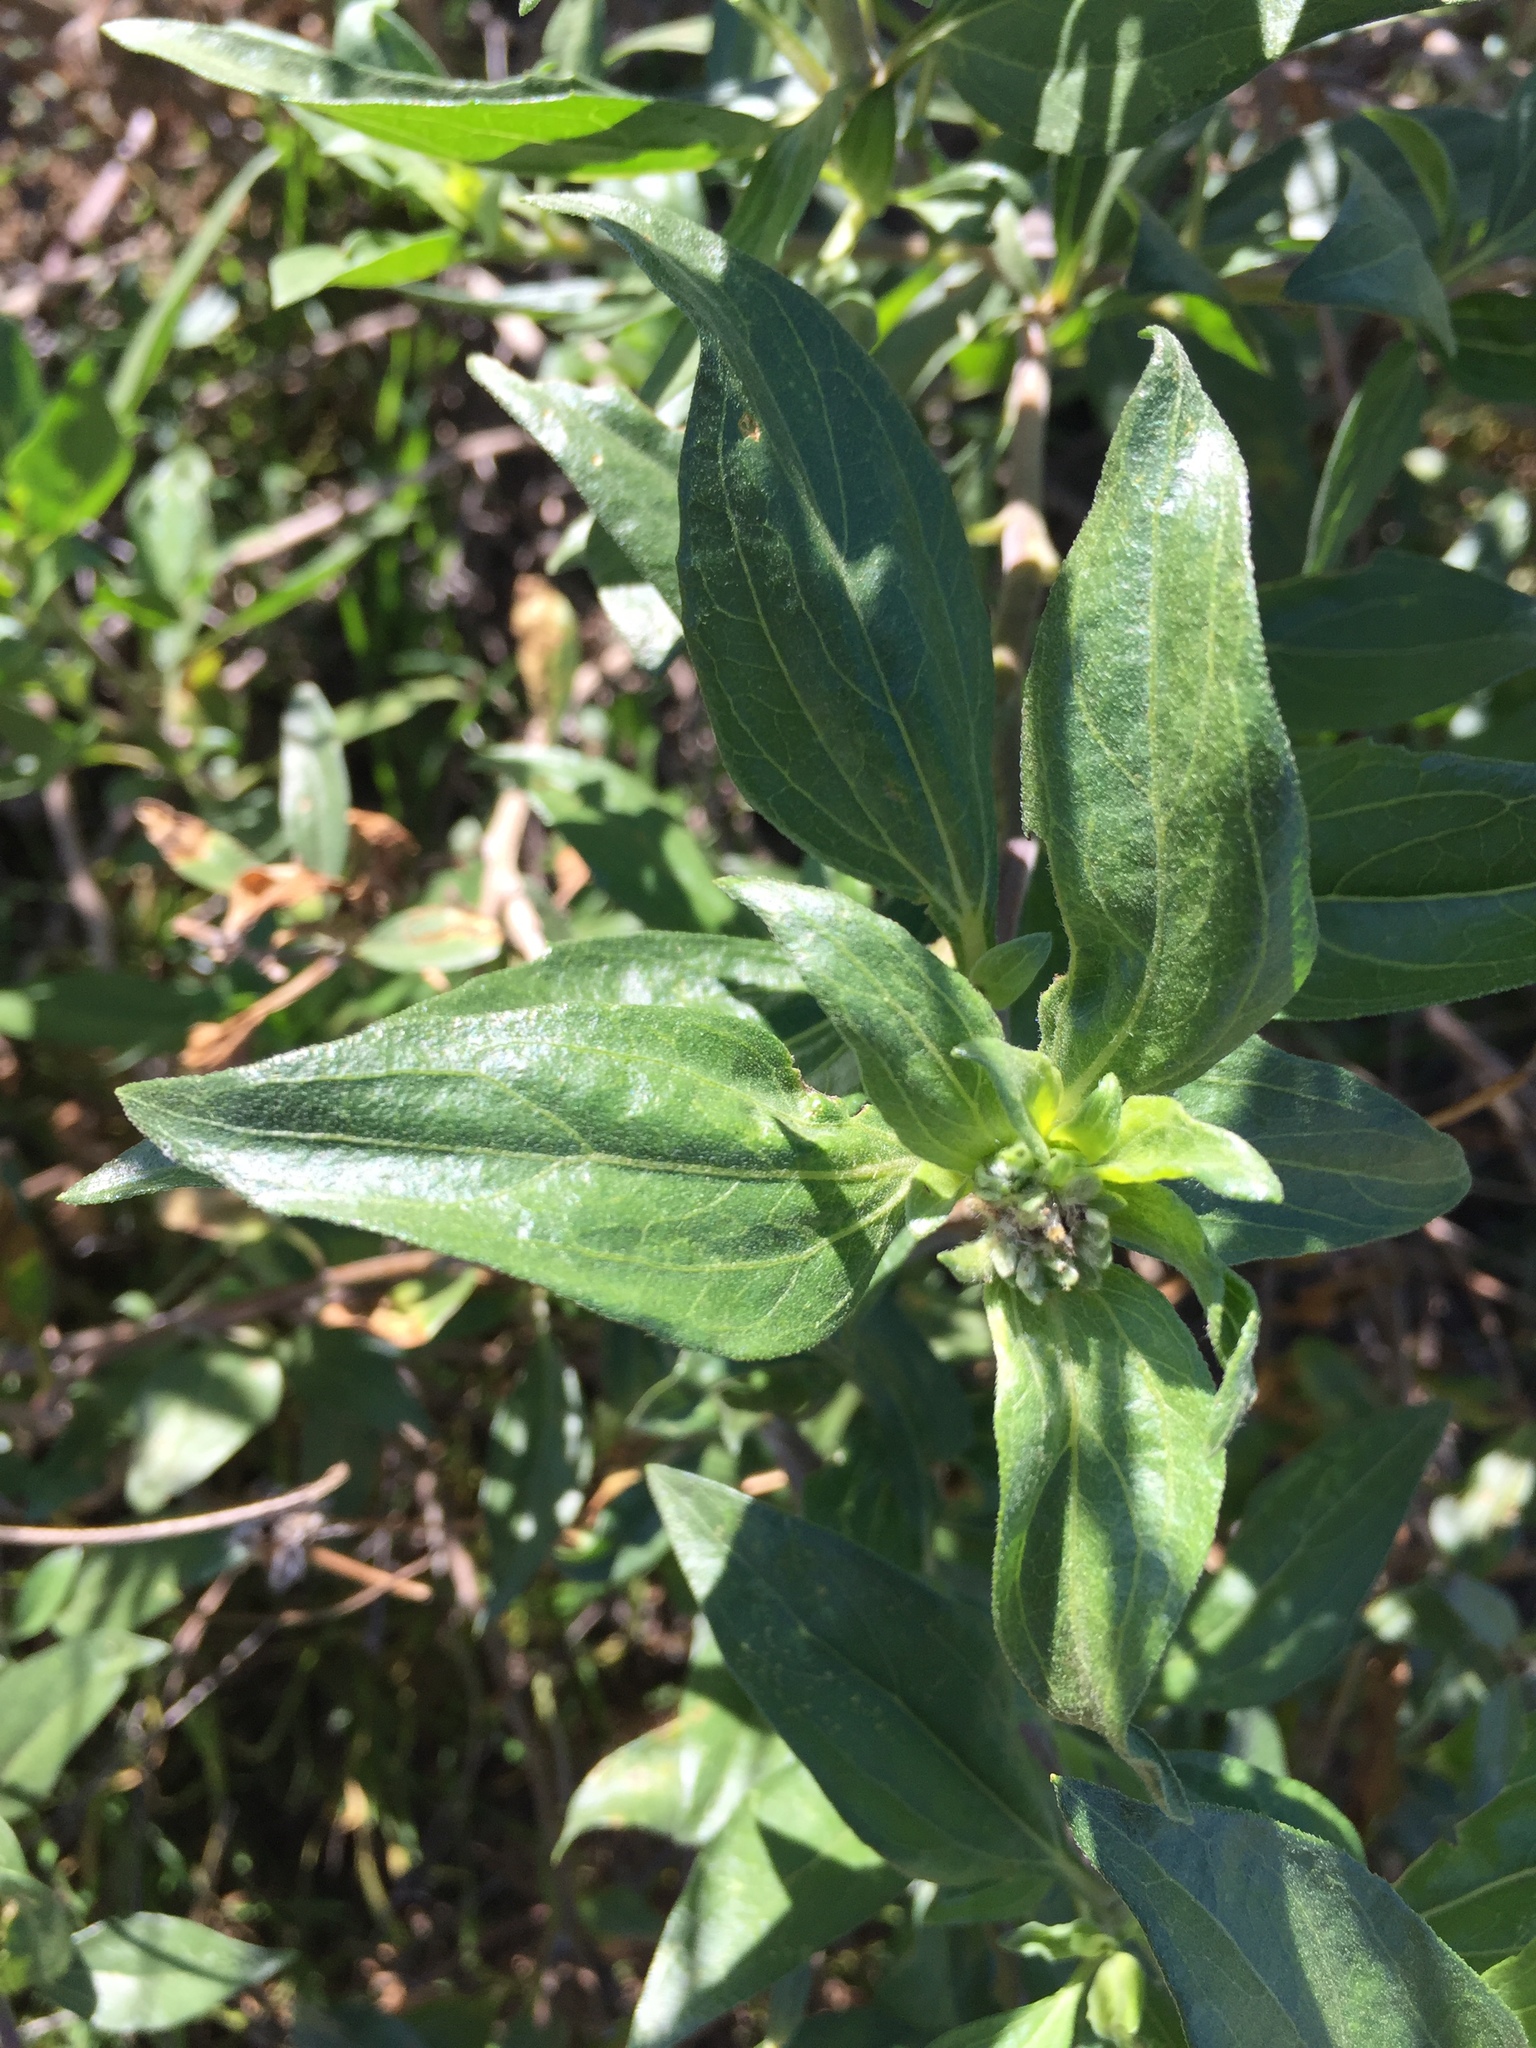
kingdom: Plantae
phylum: Tracheophyta
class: Magnoliopsida
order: Asterales
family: Asteraceae
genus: Encelia
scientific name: Encelia californica
